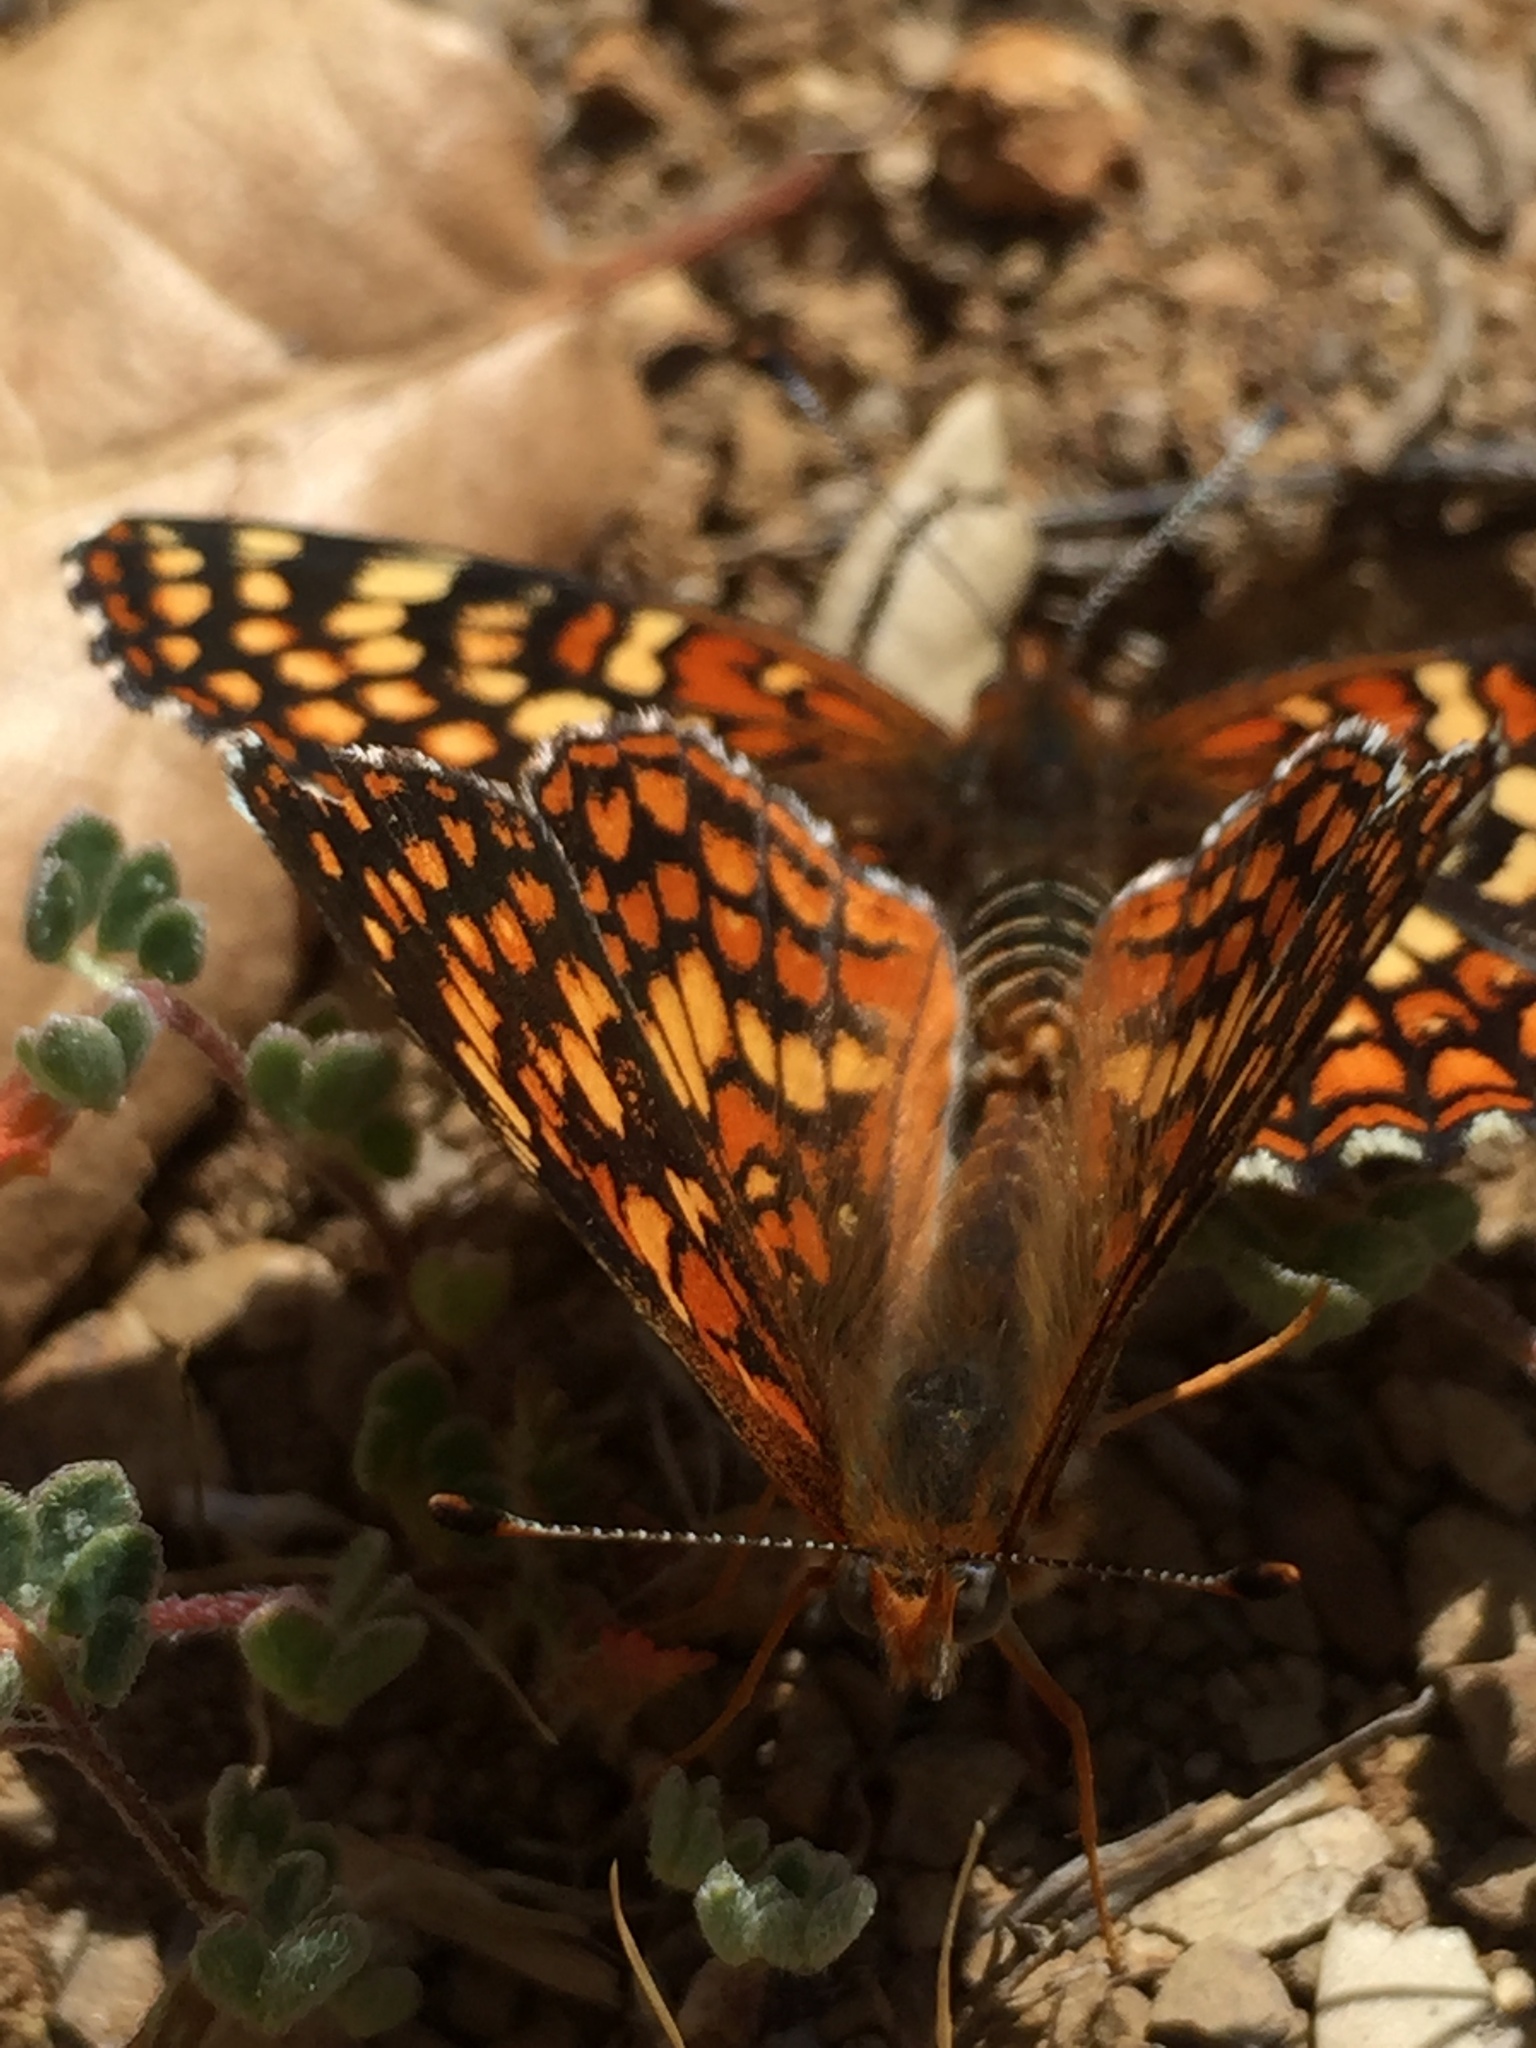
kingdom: Animalia
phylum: Arthropoda
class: Insecta
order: Lepidoptera
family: Nymphalidae
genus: Chlosyne
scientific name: Chlosyne gabbii
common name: Gabb's checkerspot
